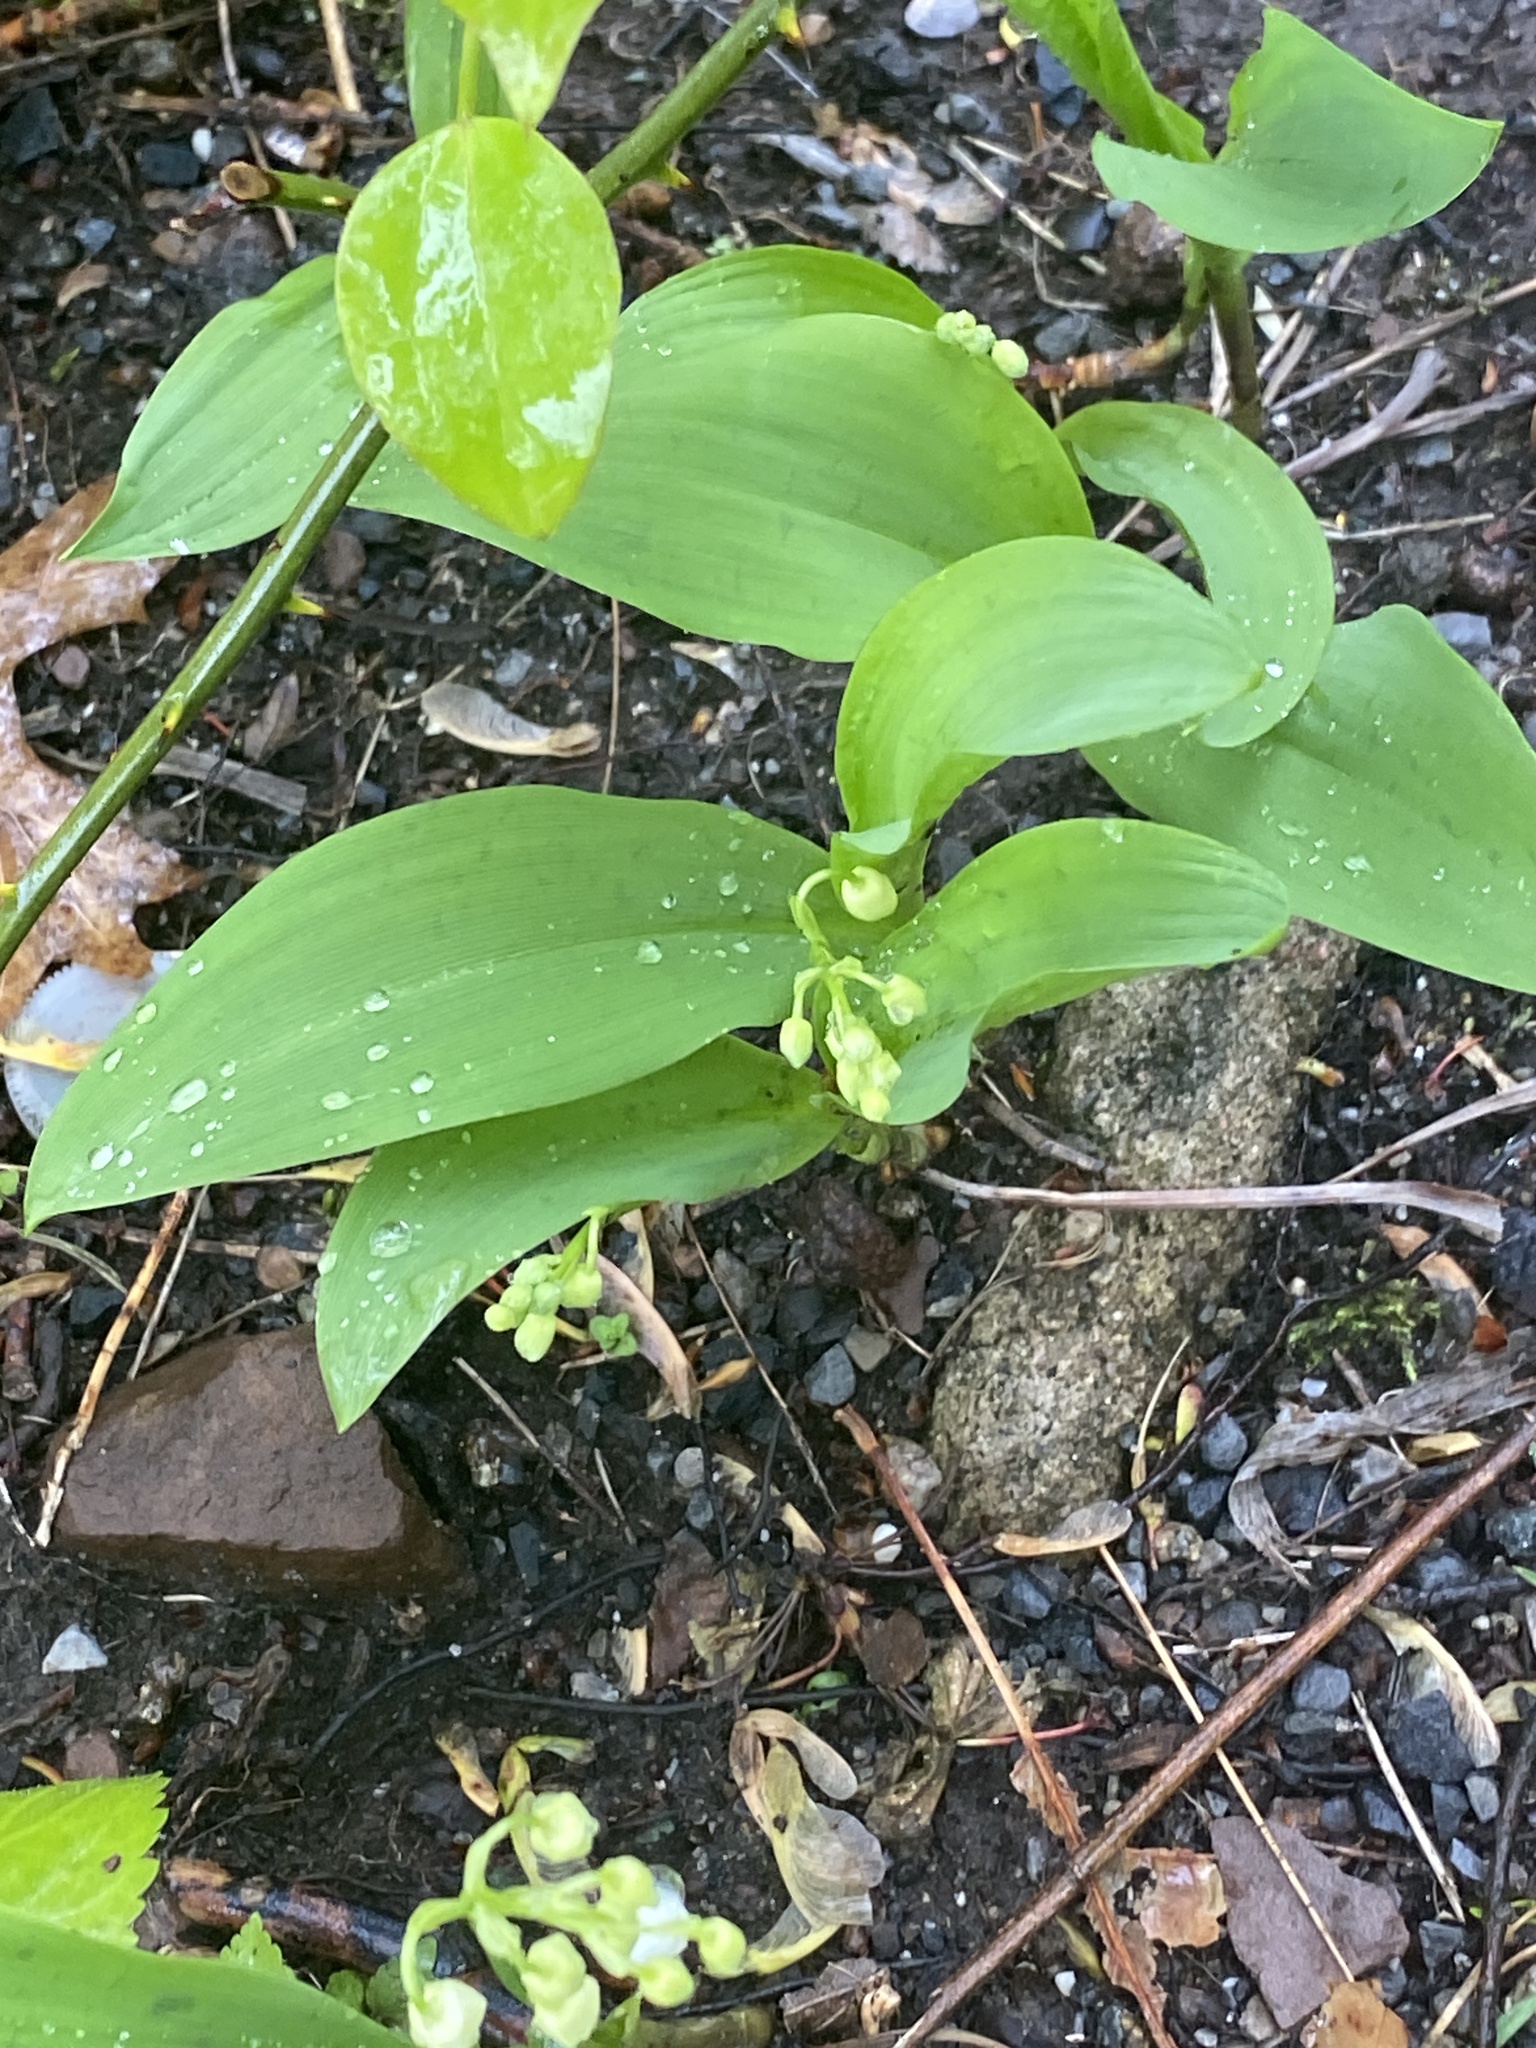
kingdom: Plantae
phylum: Tracheophyta
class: Liliopsida
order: Asparagales
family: Asparagaceae
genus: Convallaria
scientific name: Convallaria majalis
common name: Lily-of-the-valley
